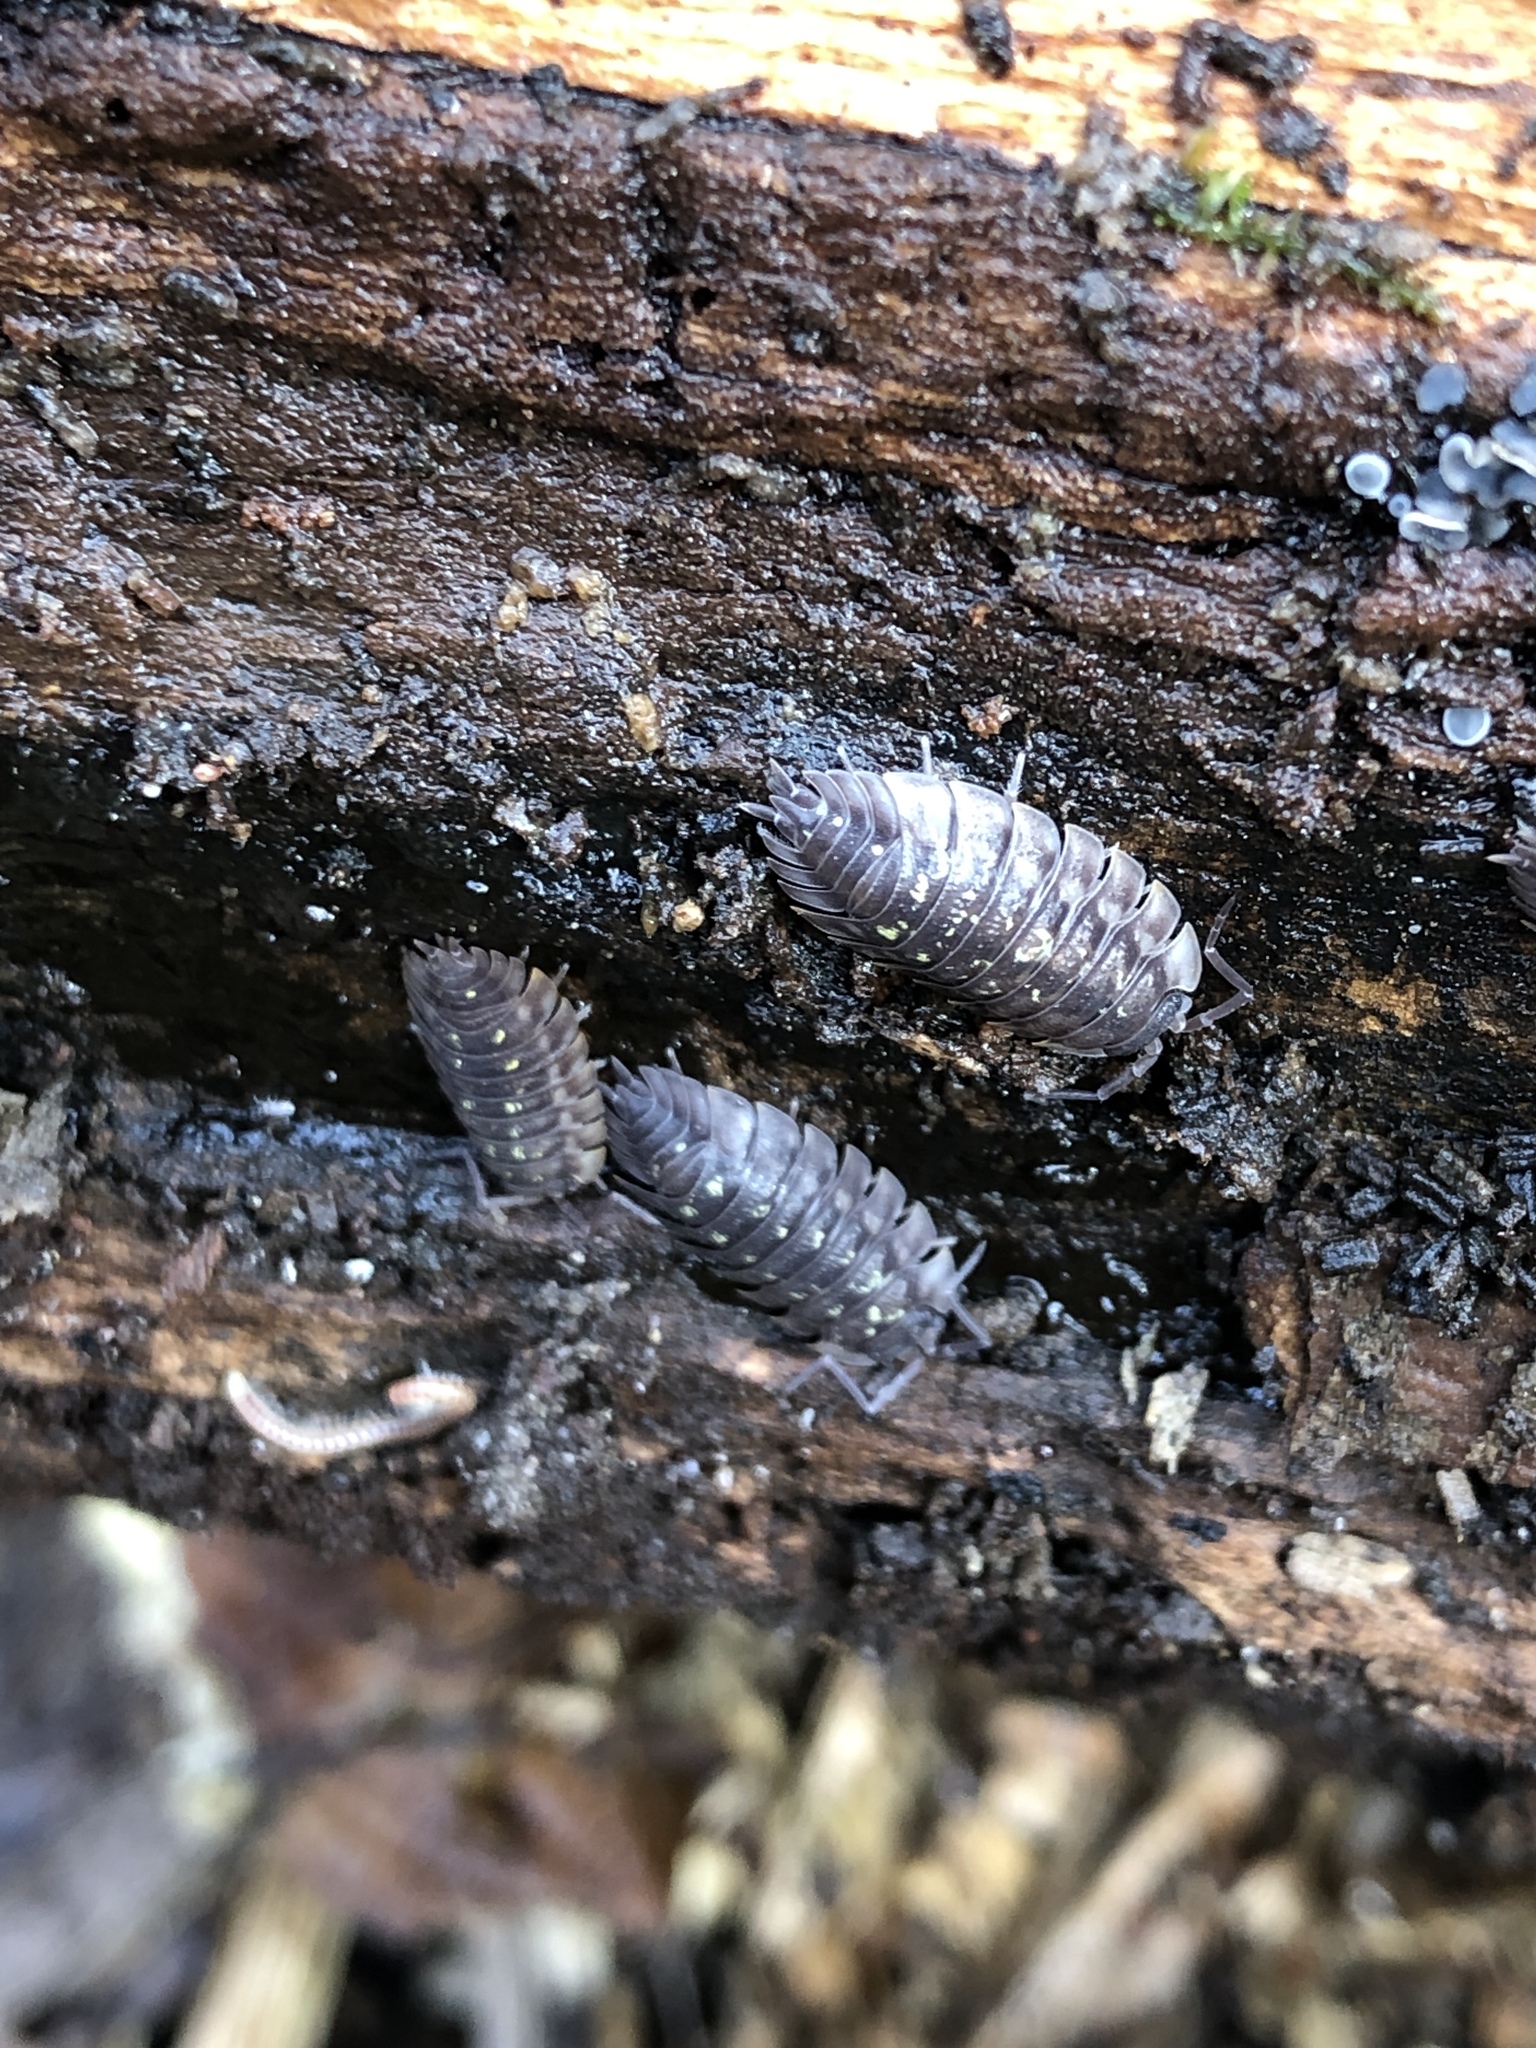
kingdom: Animalia
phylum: Arthropoda
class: Malacostraca
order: Isopoda
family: Oniscidae
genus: Oniscus
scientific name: Oniscus asellus
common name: Common shiny woodlouse
